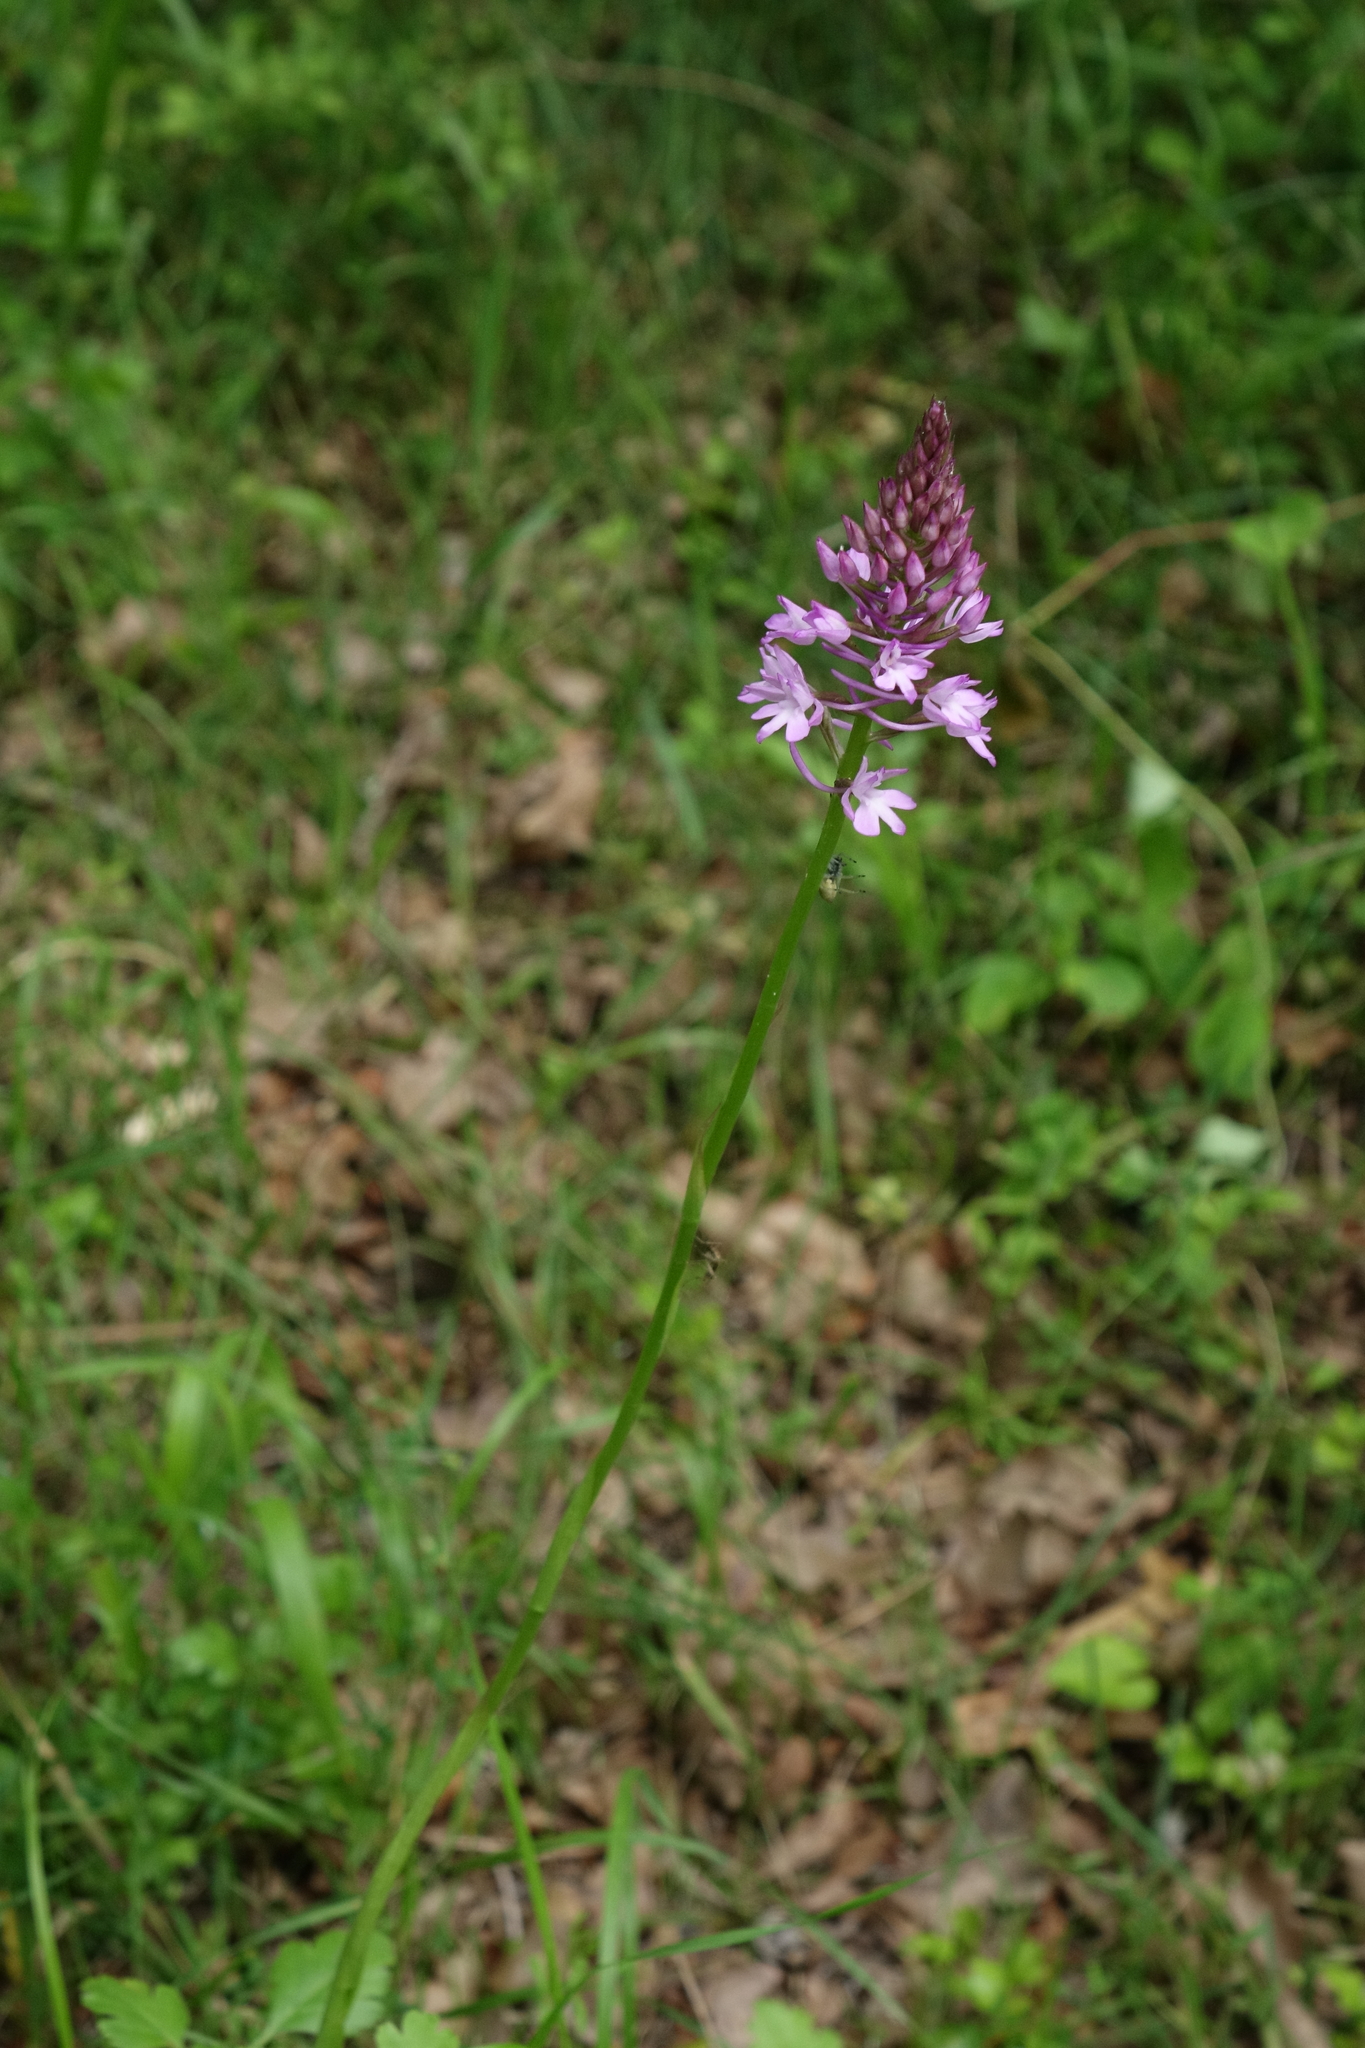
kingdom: Plantae
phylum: Tracheophyta
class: Liliopsida
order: Asparagales
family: Orchidaceae
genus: Anacamptis
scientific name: Anacamptis pyramidalis
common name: Pyramidal orchid
